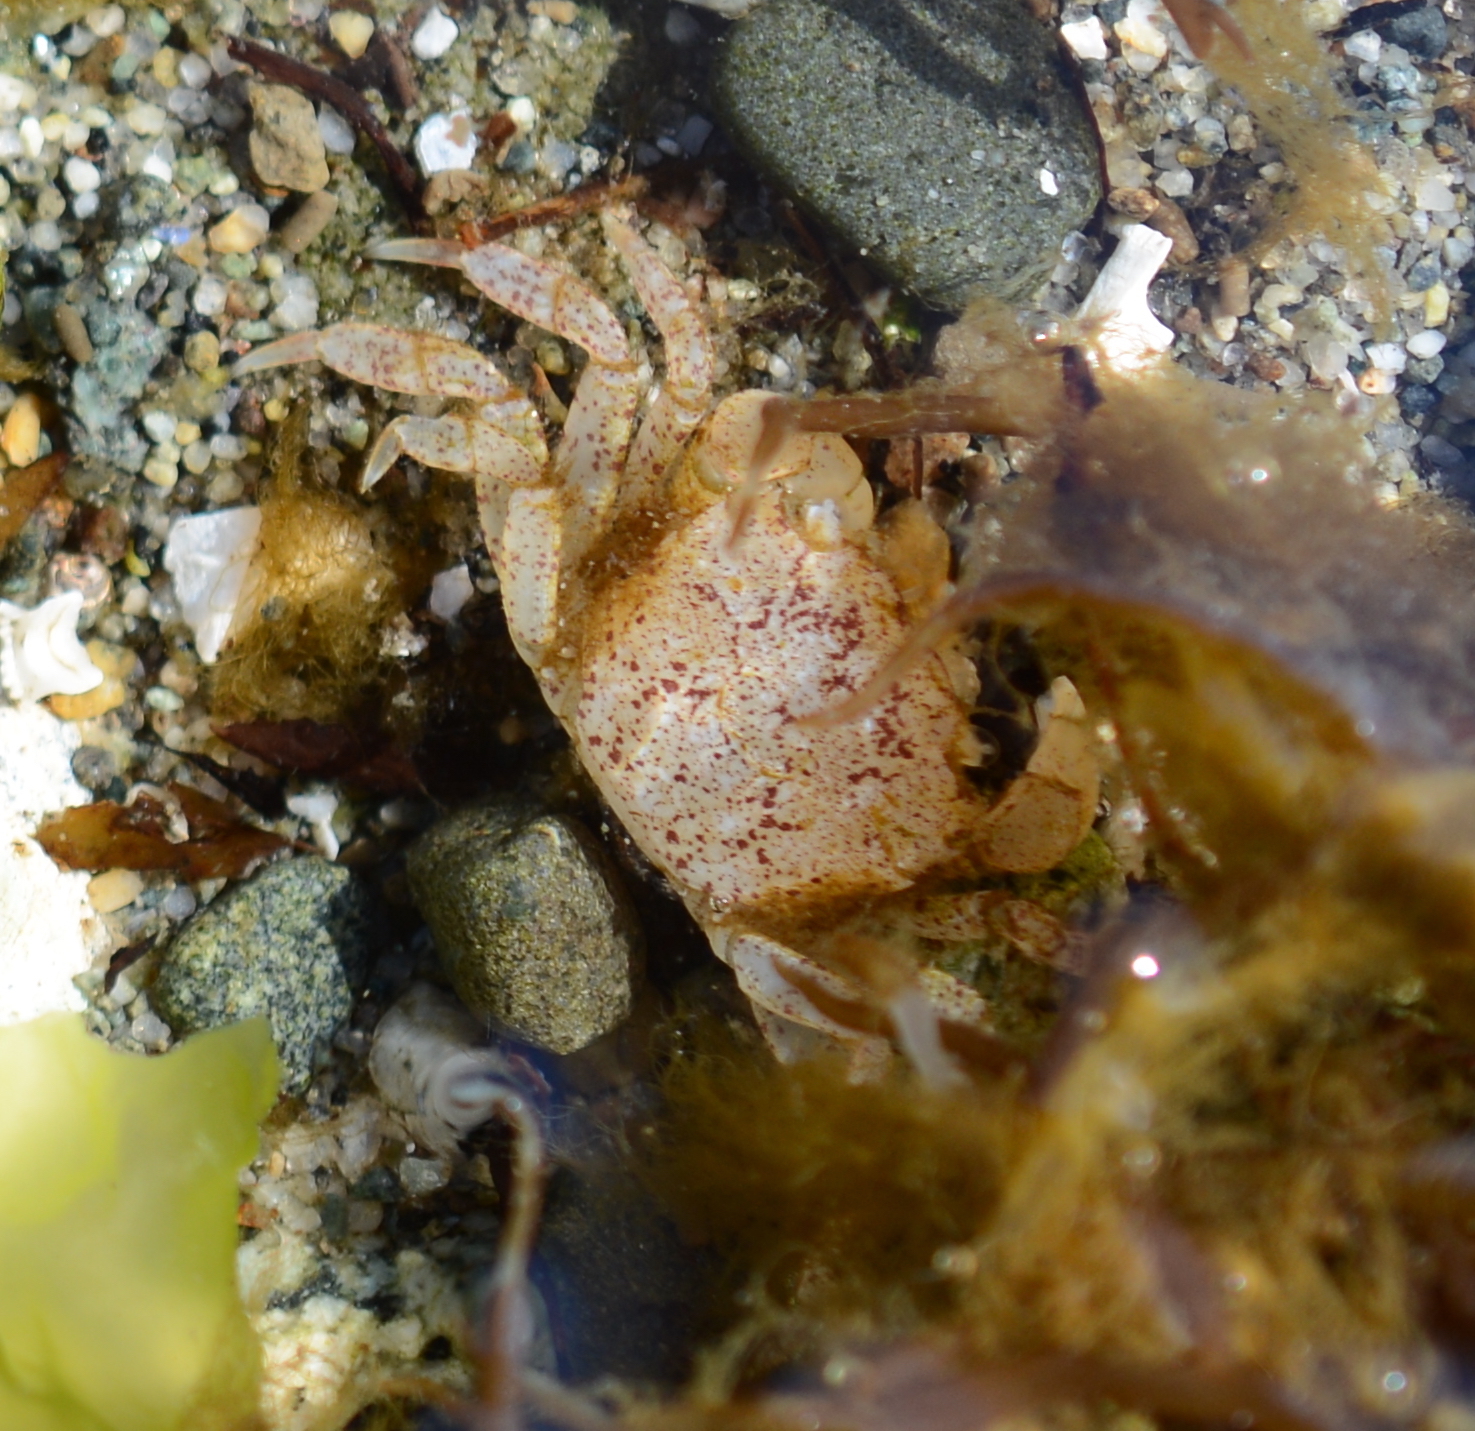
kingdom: Animalia
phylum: Arthropoda
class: Malacostraca
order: Decapoda
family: Varunidae
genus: Hemigrapsus
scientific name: Hemigrapsus oregonensis
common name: Yellow shore crab
